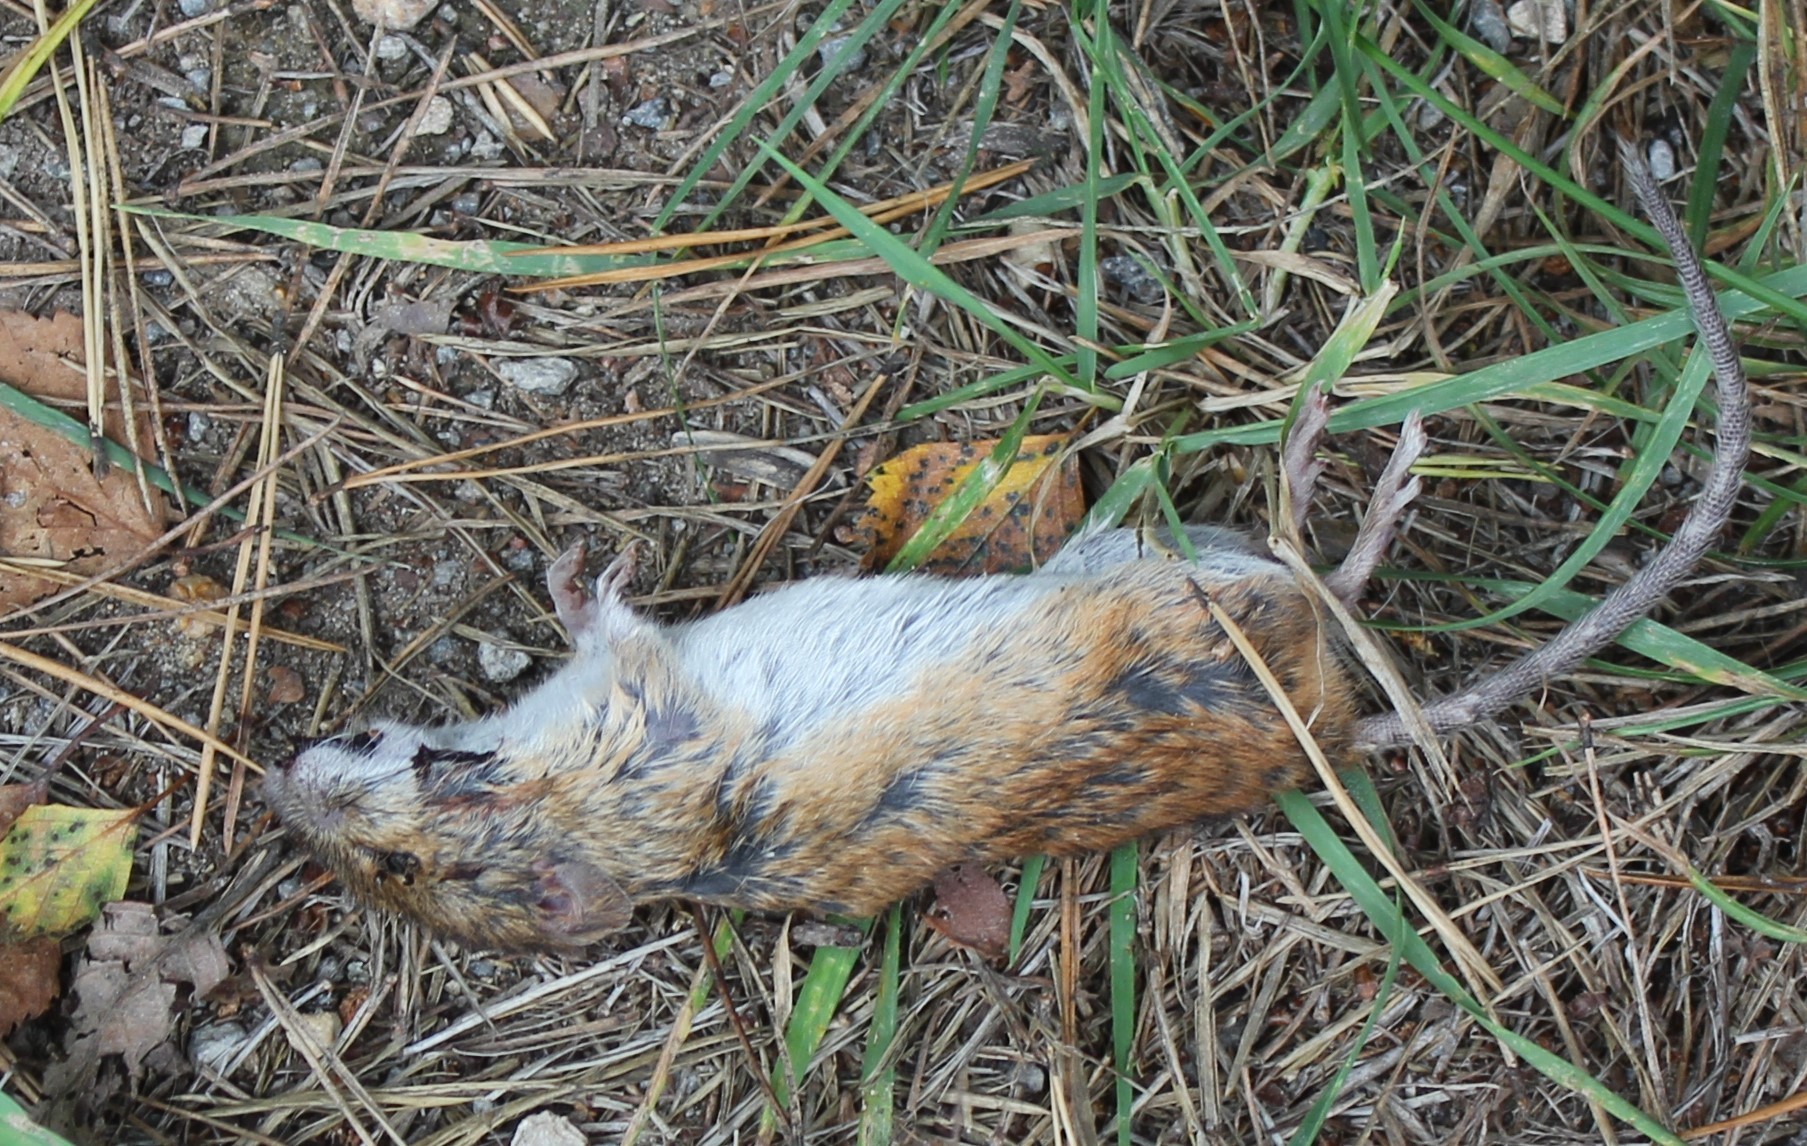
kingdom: Animalia
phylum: Chordata
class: Mammalia
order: Rodentia
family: Muridae
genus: Apodemus
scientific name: Apodemus agrarius
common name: Striped field mouse
